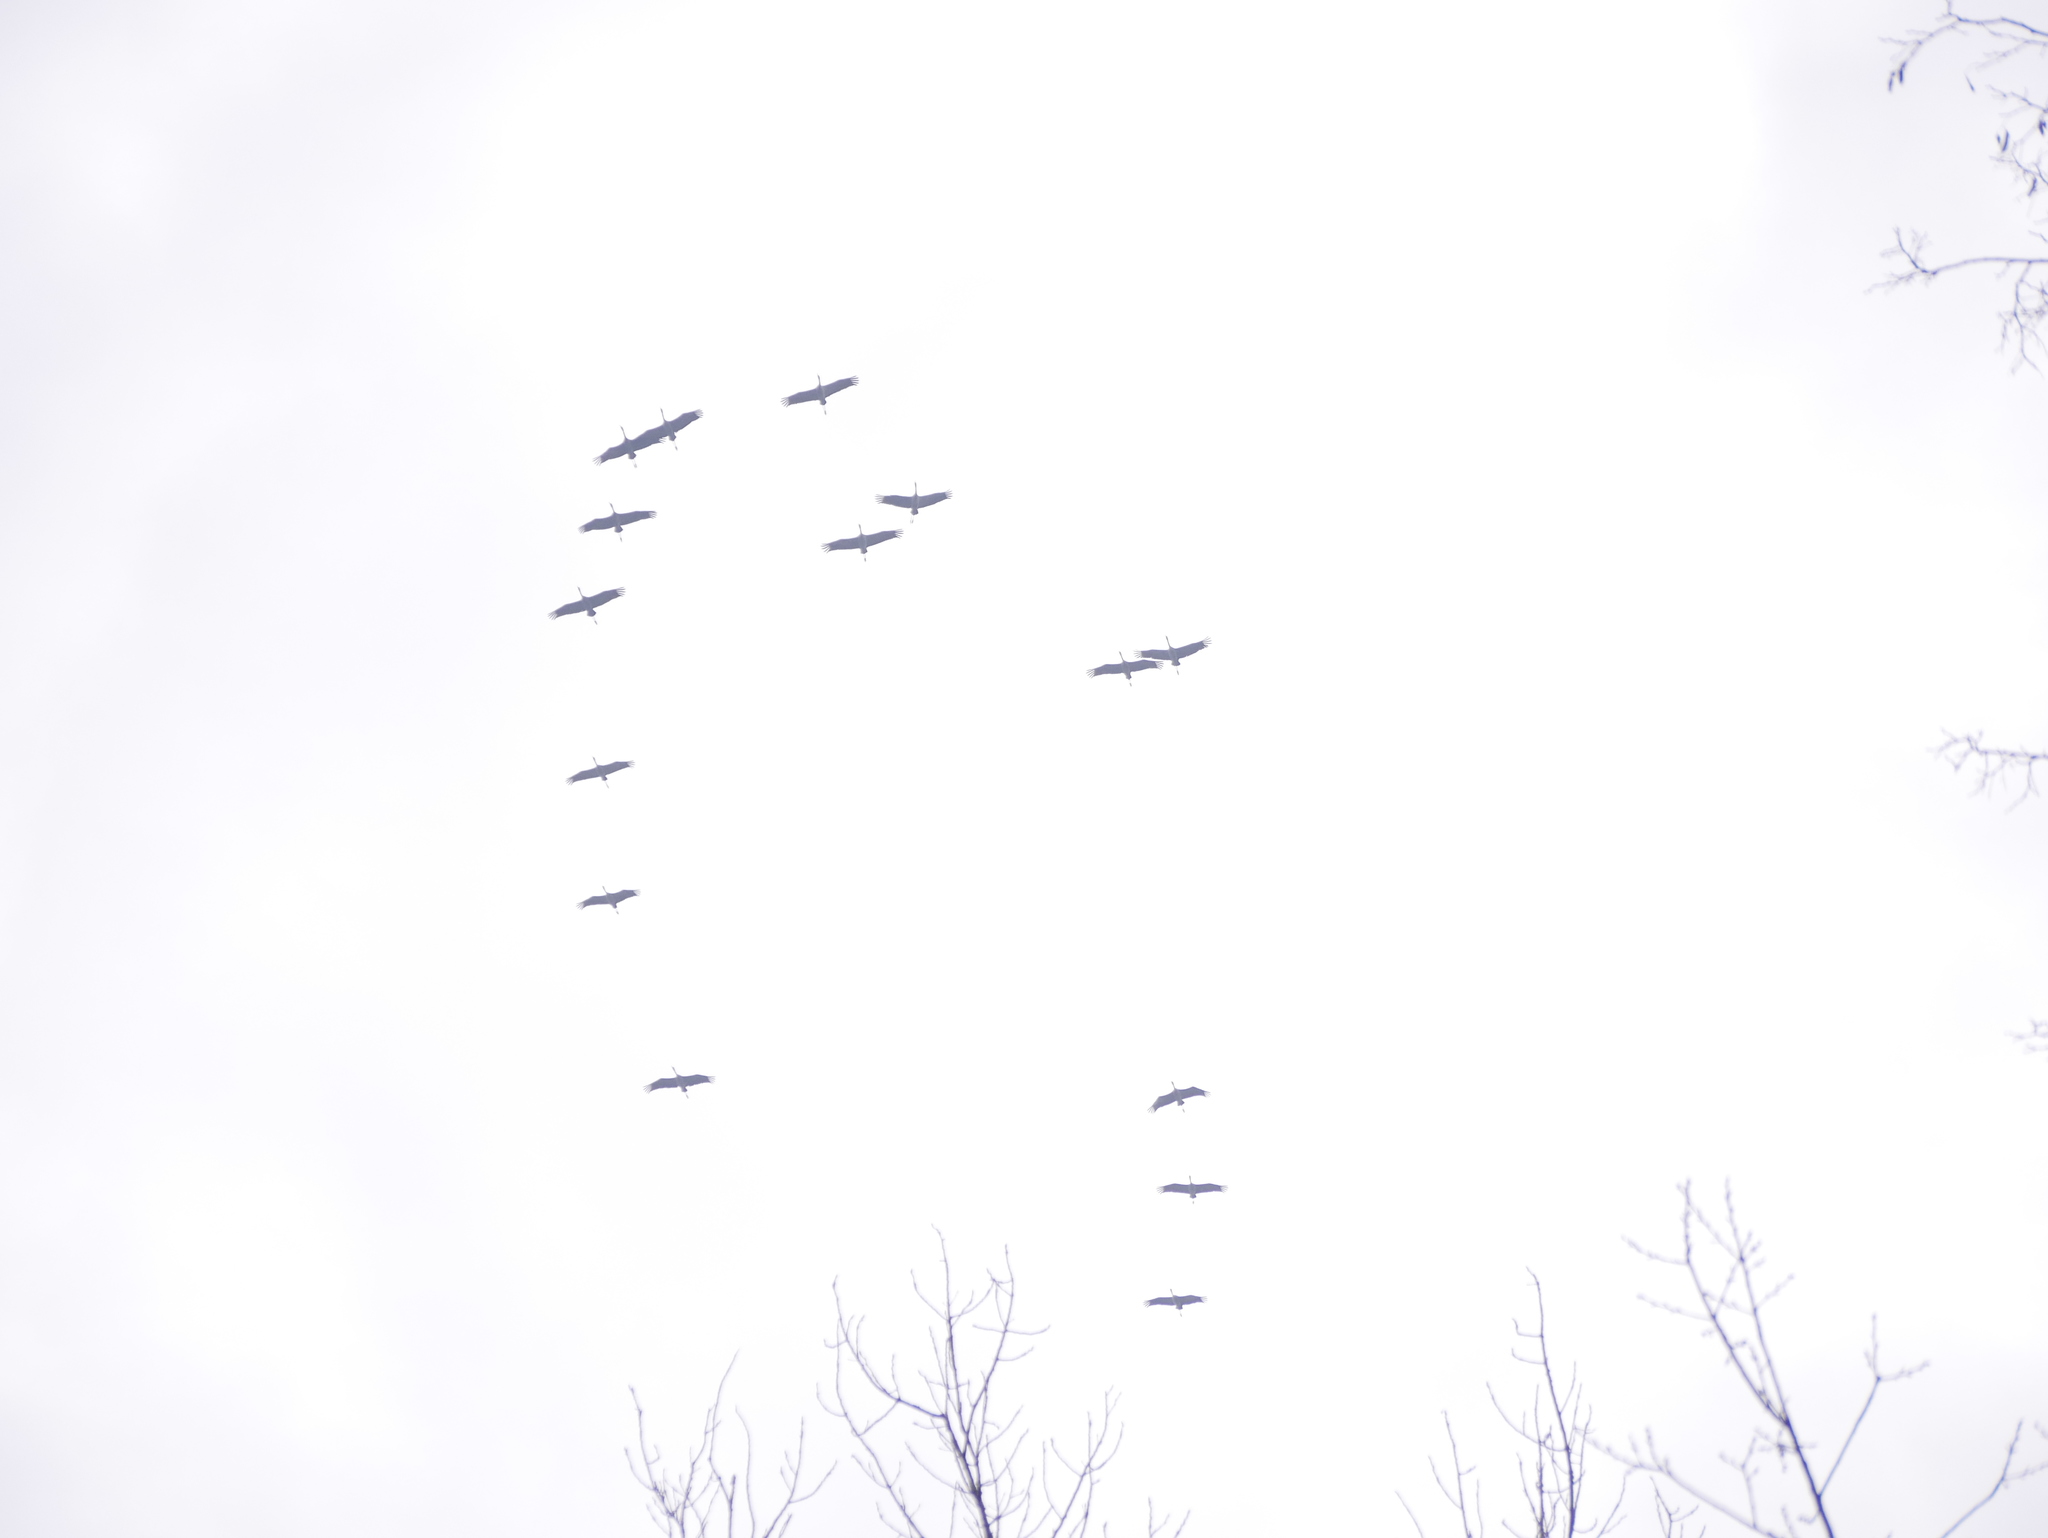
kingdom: Animalia
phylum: Chordata
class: Aves
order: Gruiformes
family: Gruidae
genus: Grus
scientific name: Grus grus
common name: Common crane
